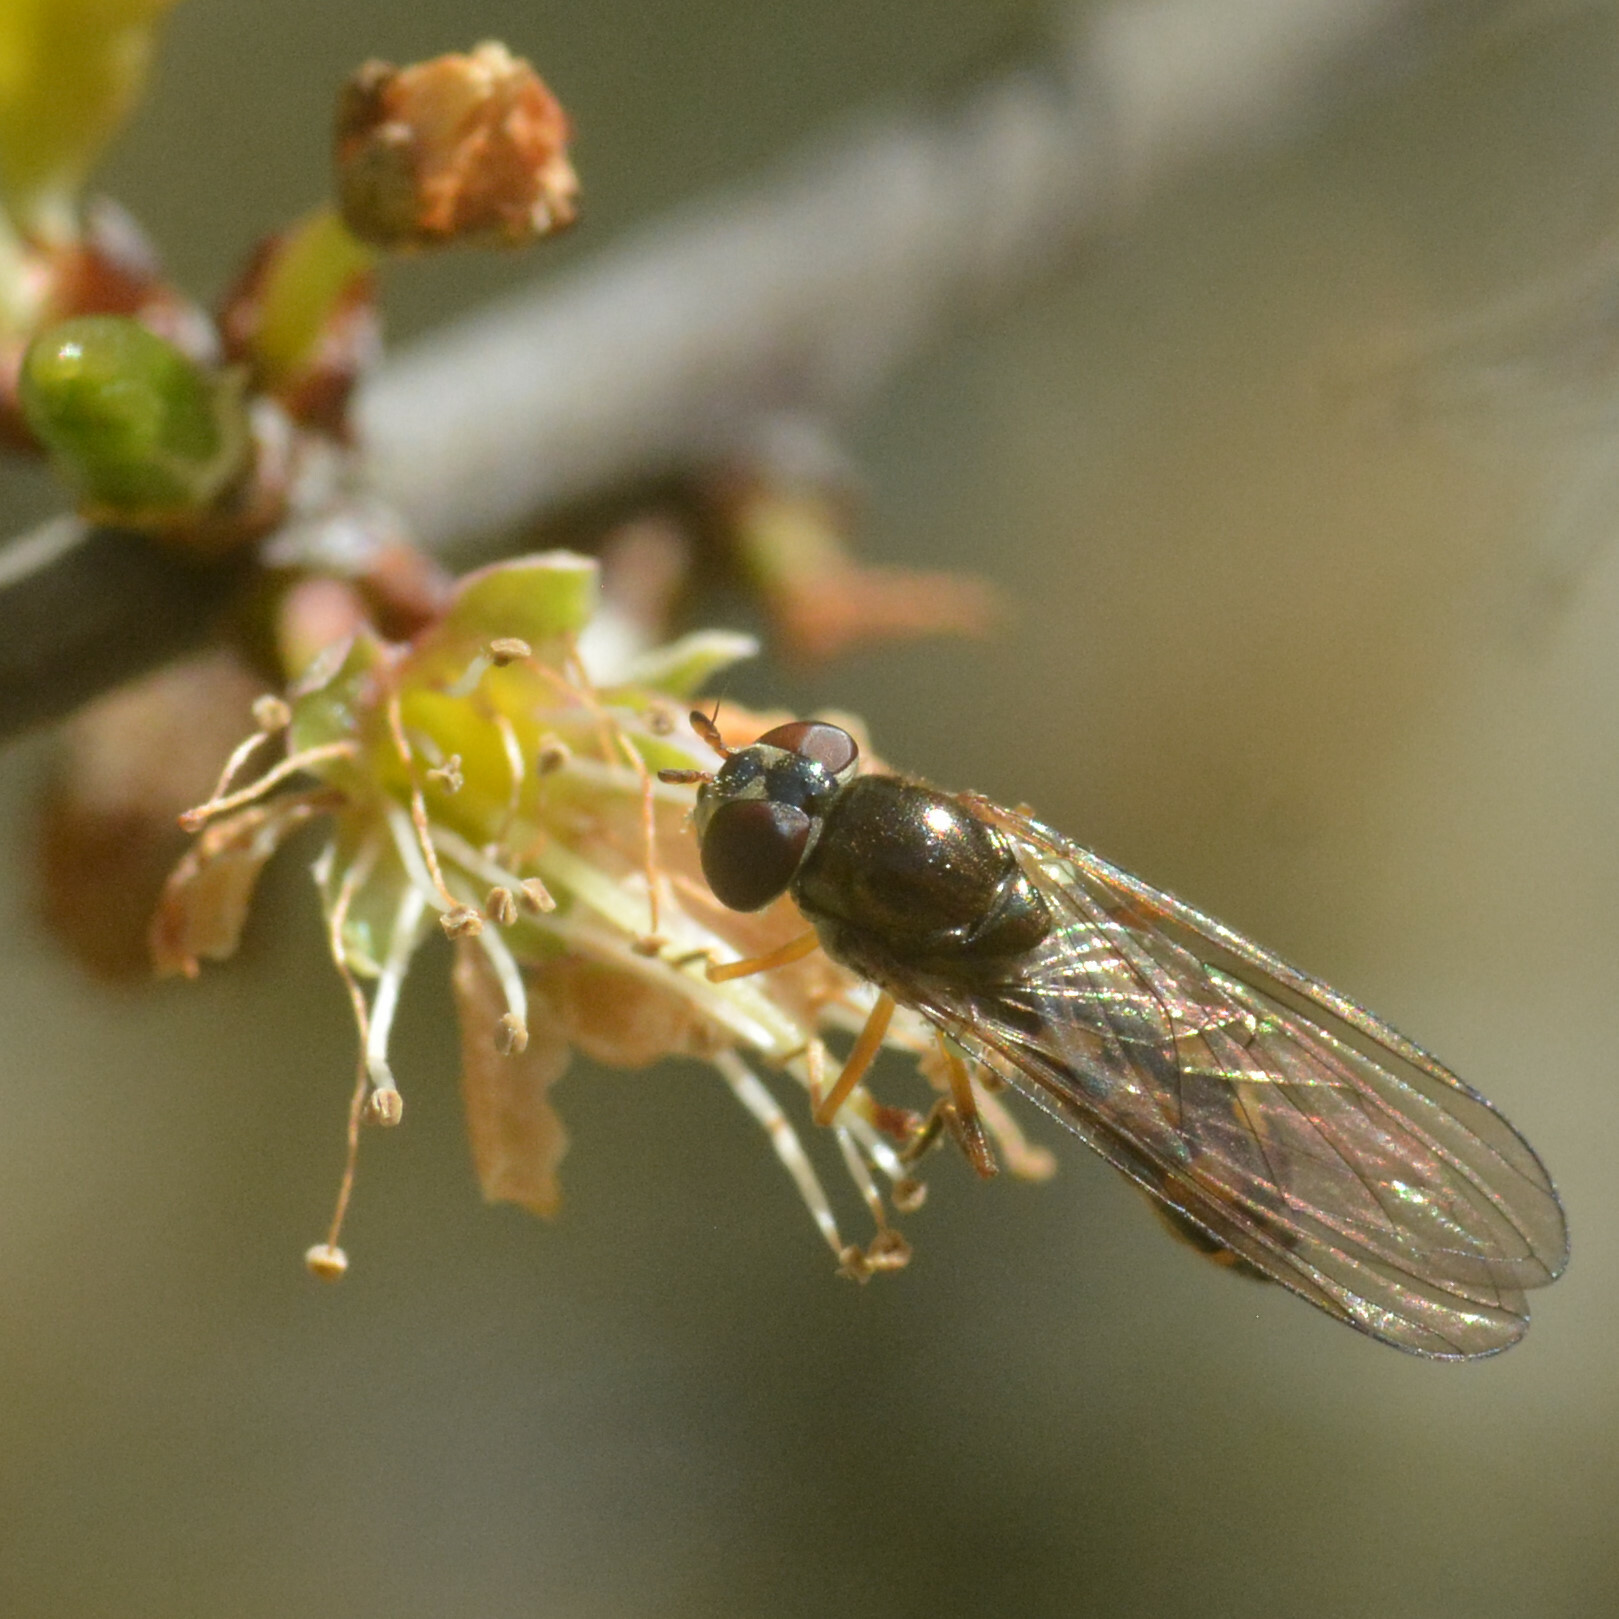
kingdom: Animalia
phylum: Arthropoda
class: Insecta
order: Diptera
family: Syrphidae
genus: Melanostoma
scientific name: Melanostoma scalare
